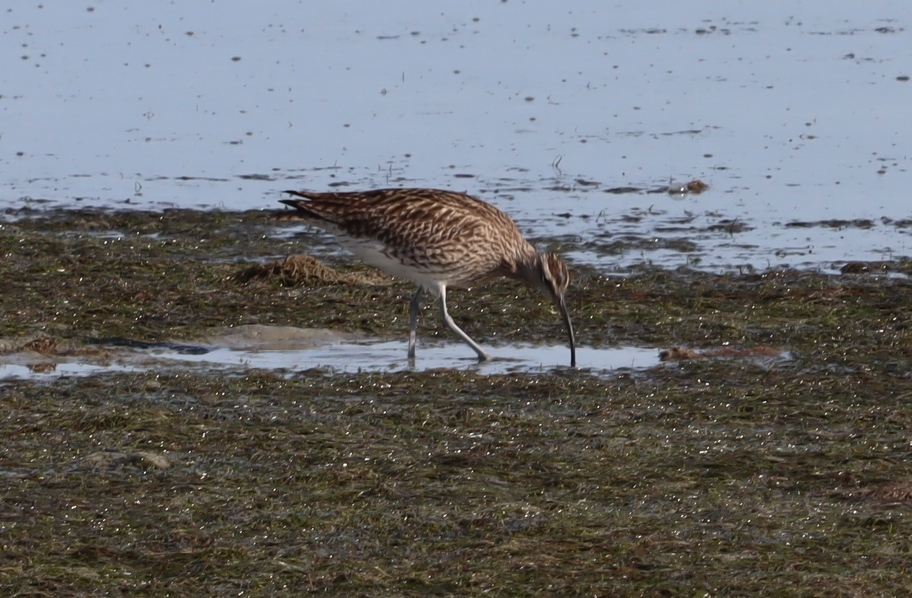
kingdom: Animalia
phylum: Chordata
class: Aves
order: Charadriiformes
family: Scolopacidae
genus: Numenius
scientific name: Numenius phaeopus
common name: Whimbrel
